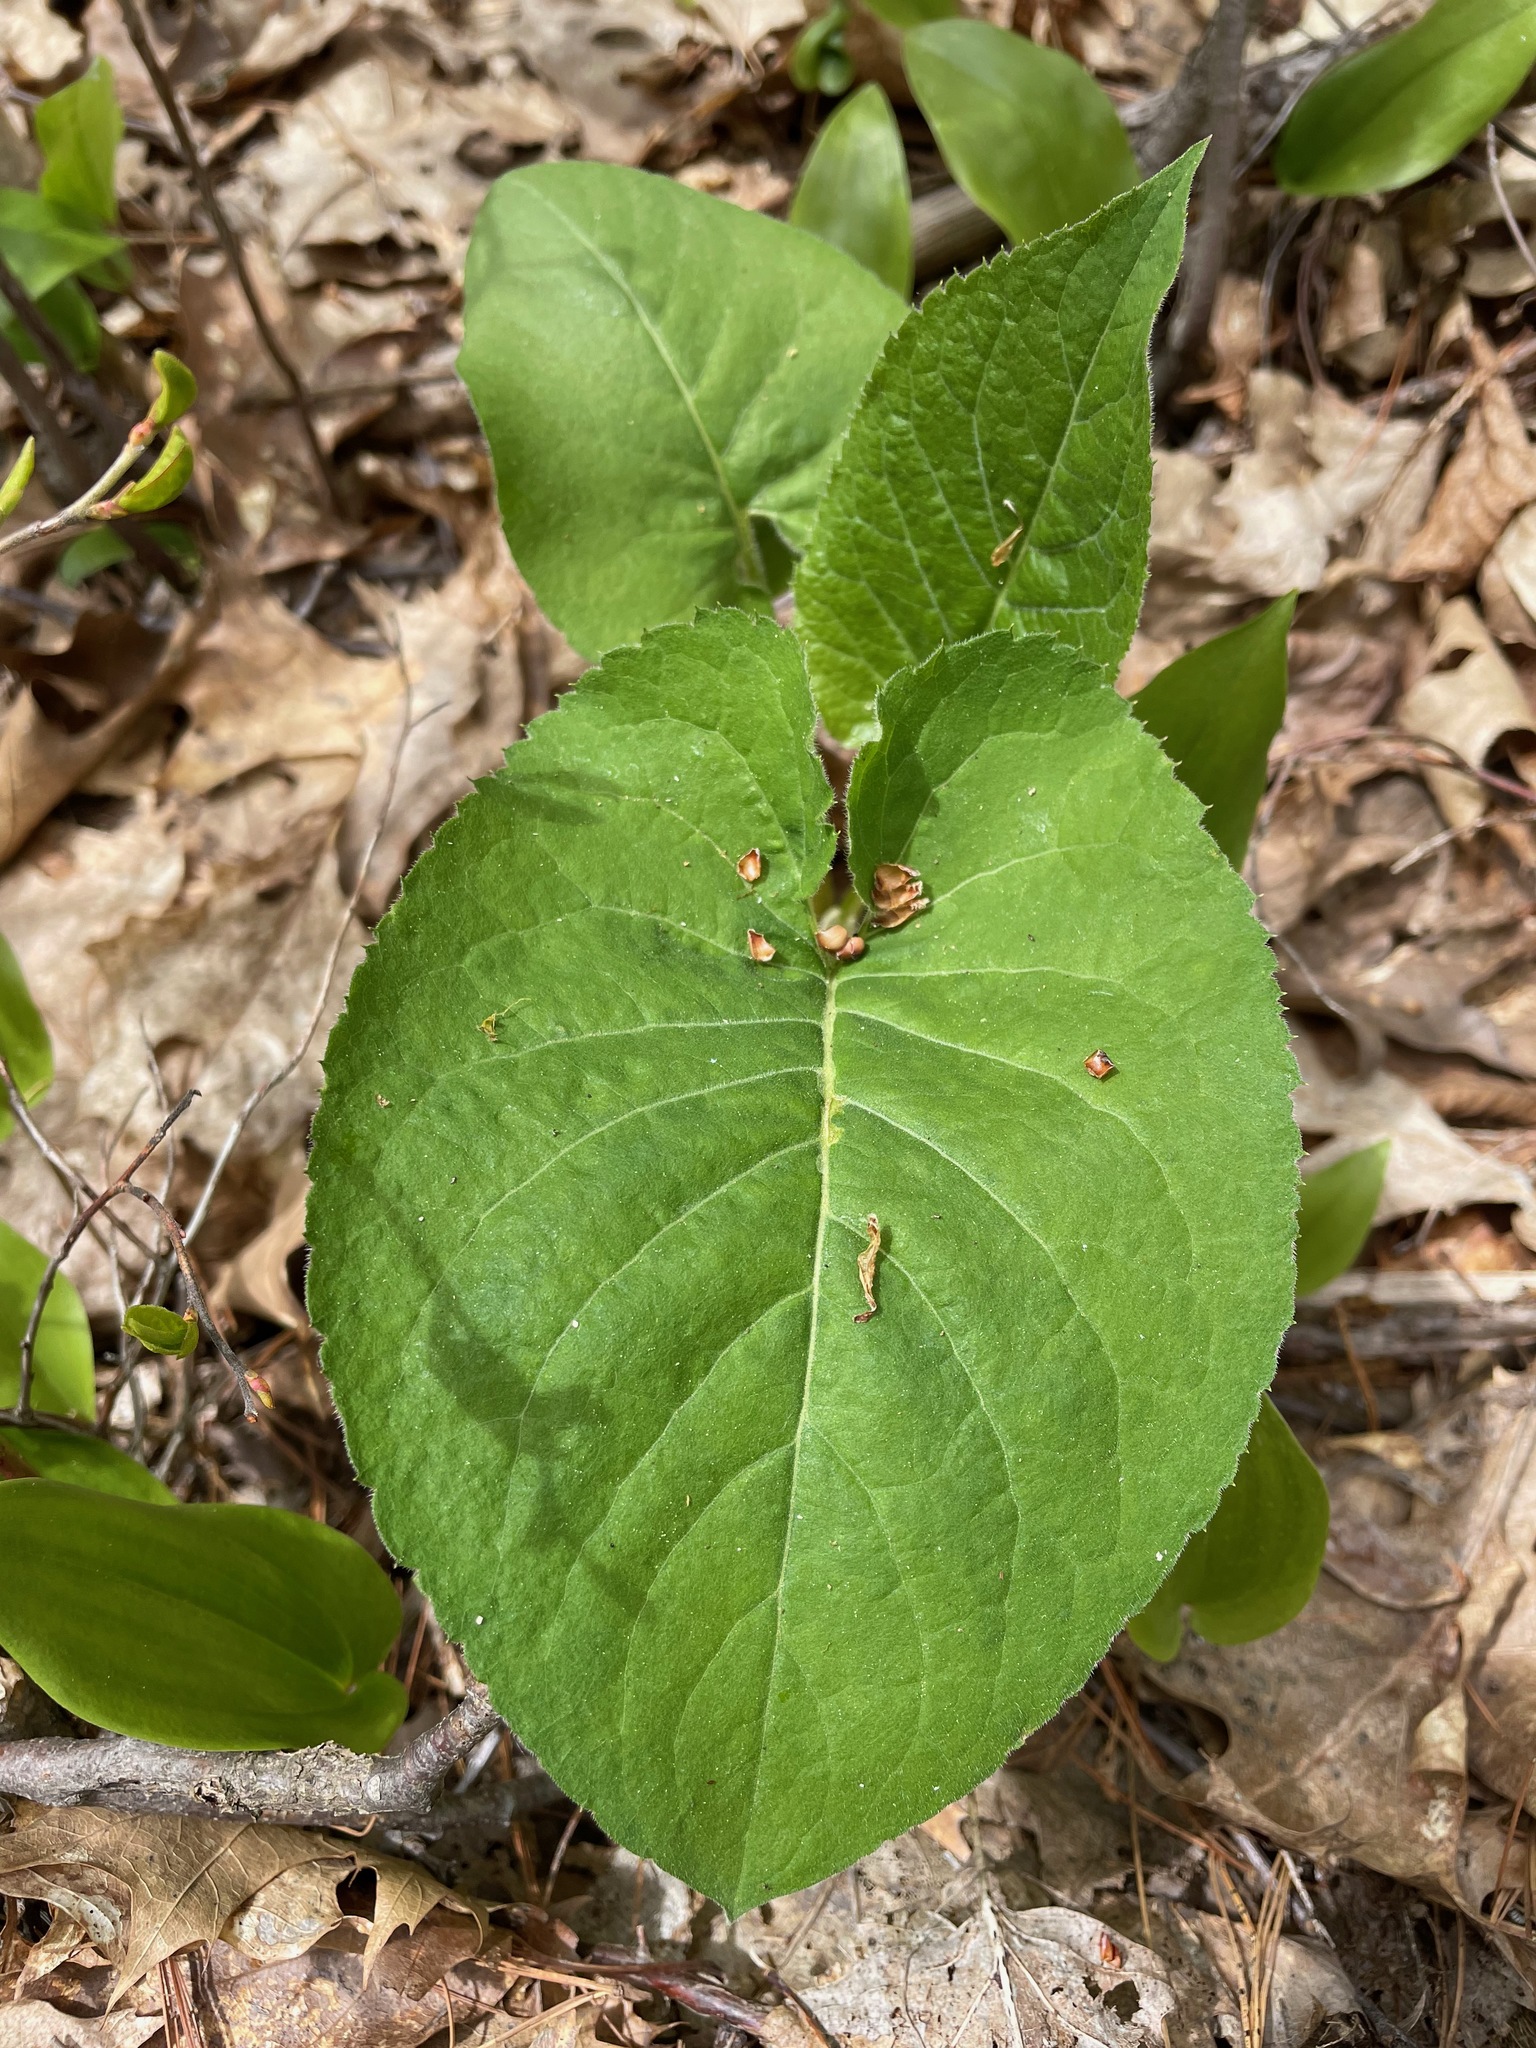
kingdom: Plantae
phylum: Tracheophyta
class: Magnoliopsida
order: Asterales
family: Asteraceae
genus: Eurybia
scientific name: Eurybia macrophylla
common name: Big-leaved aster
